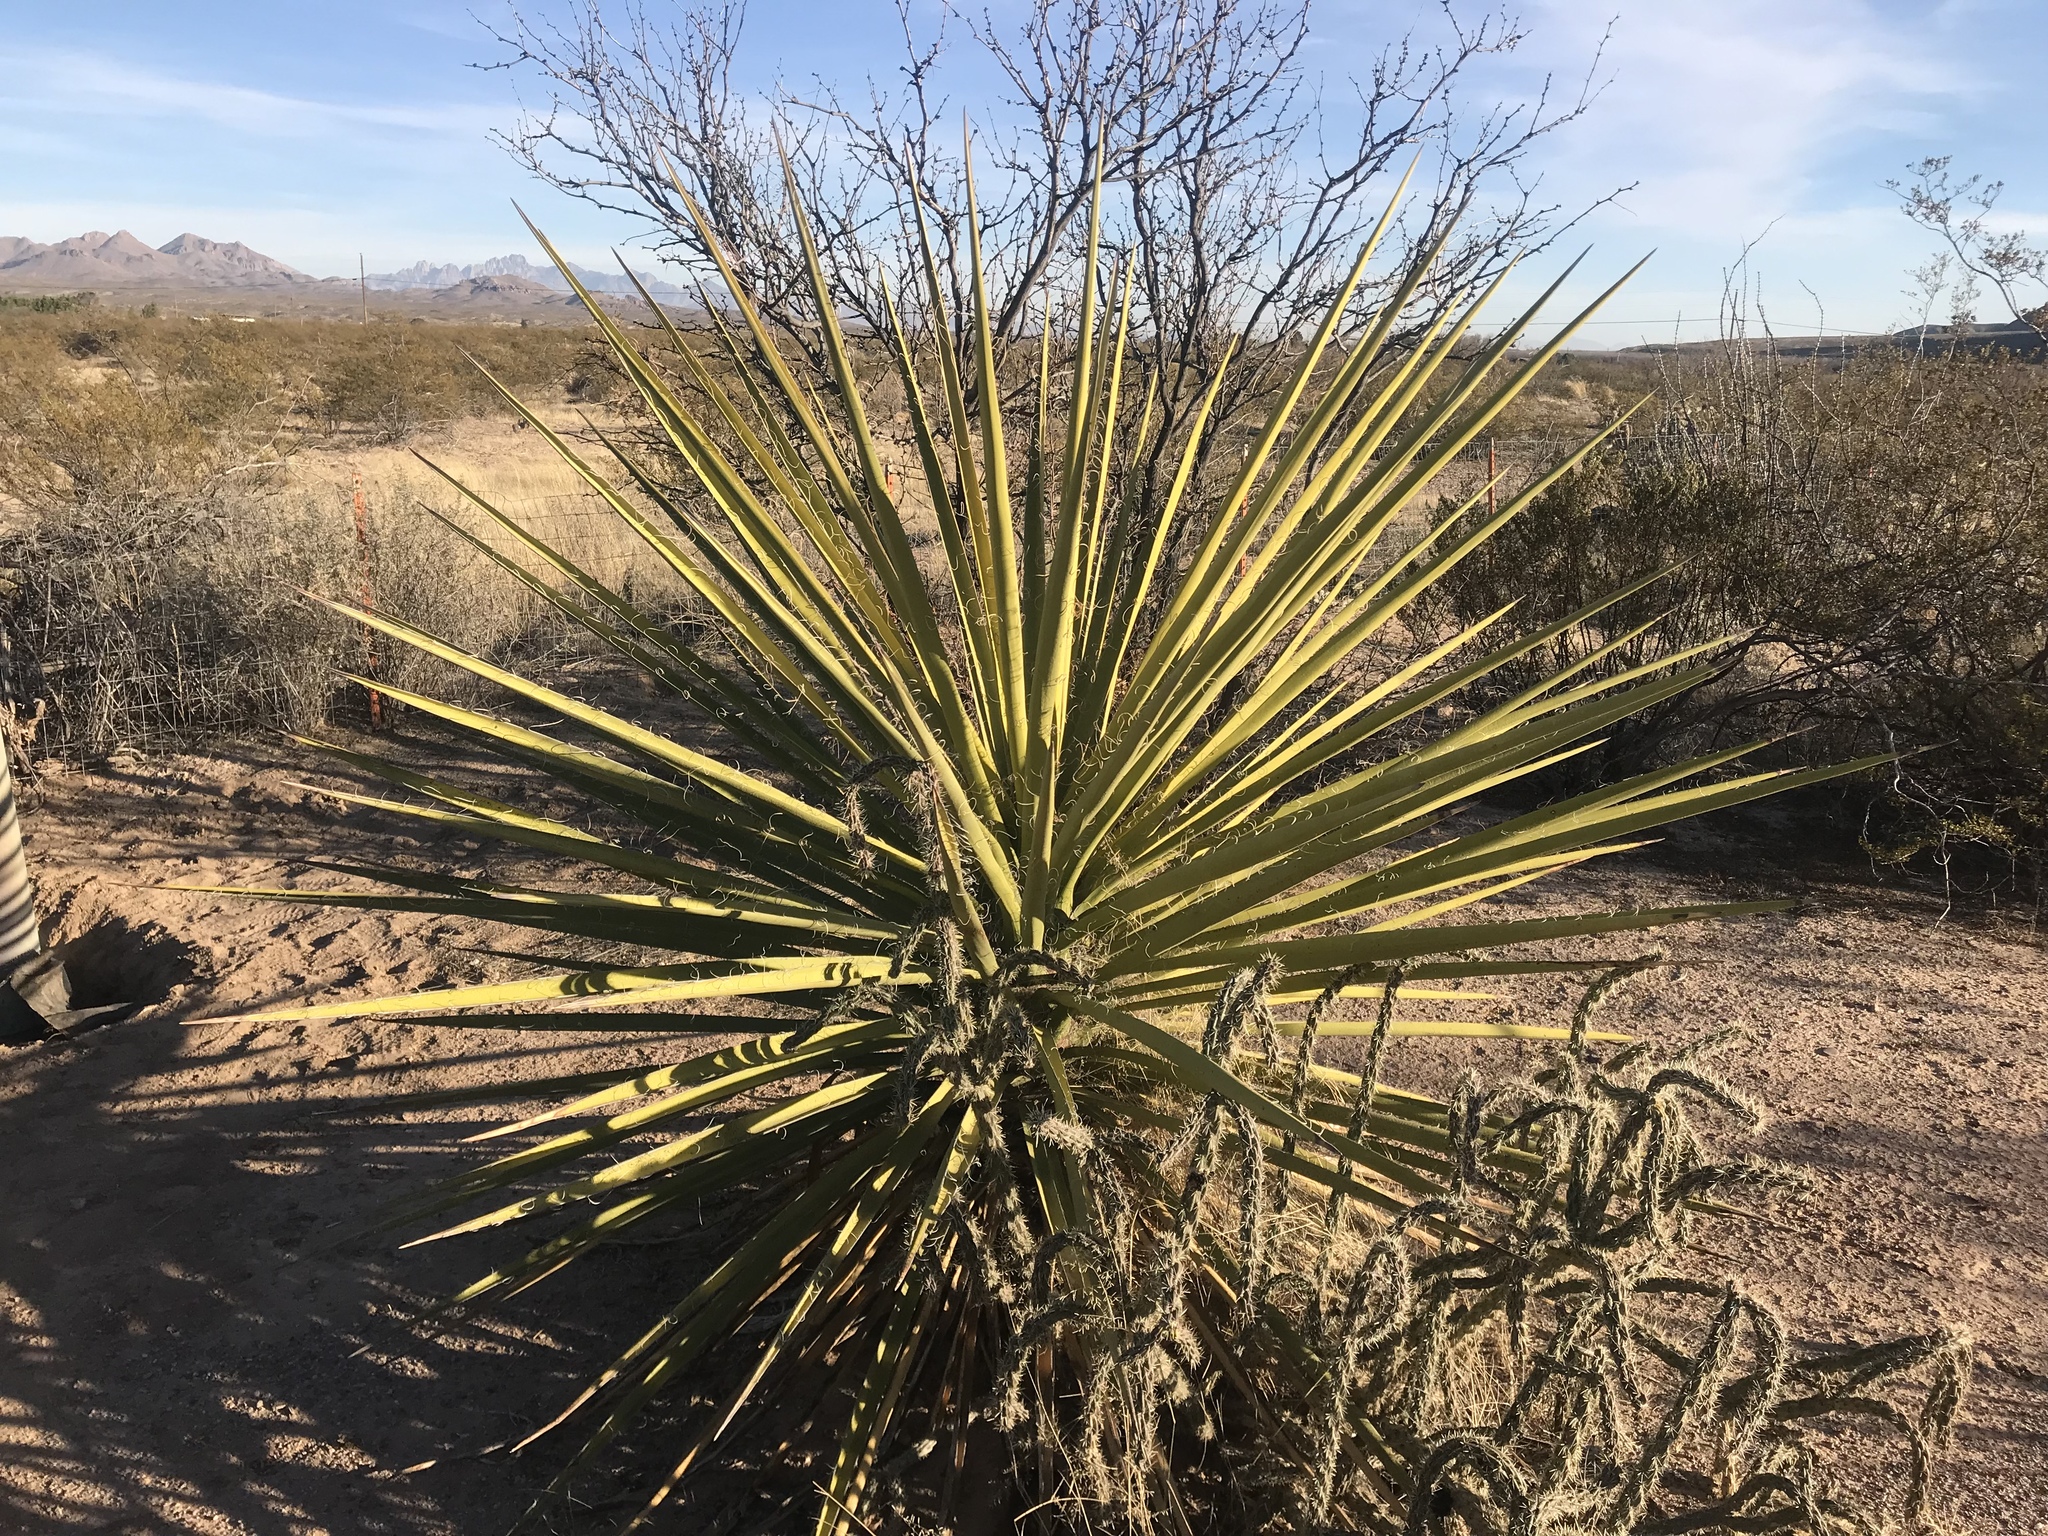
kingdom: Plantae
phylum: Tracheophyta
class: Liliopsida
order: Asparagales
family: Asparagaceae
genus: Yucca
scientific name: Yucca treculiana
